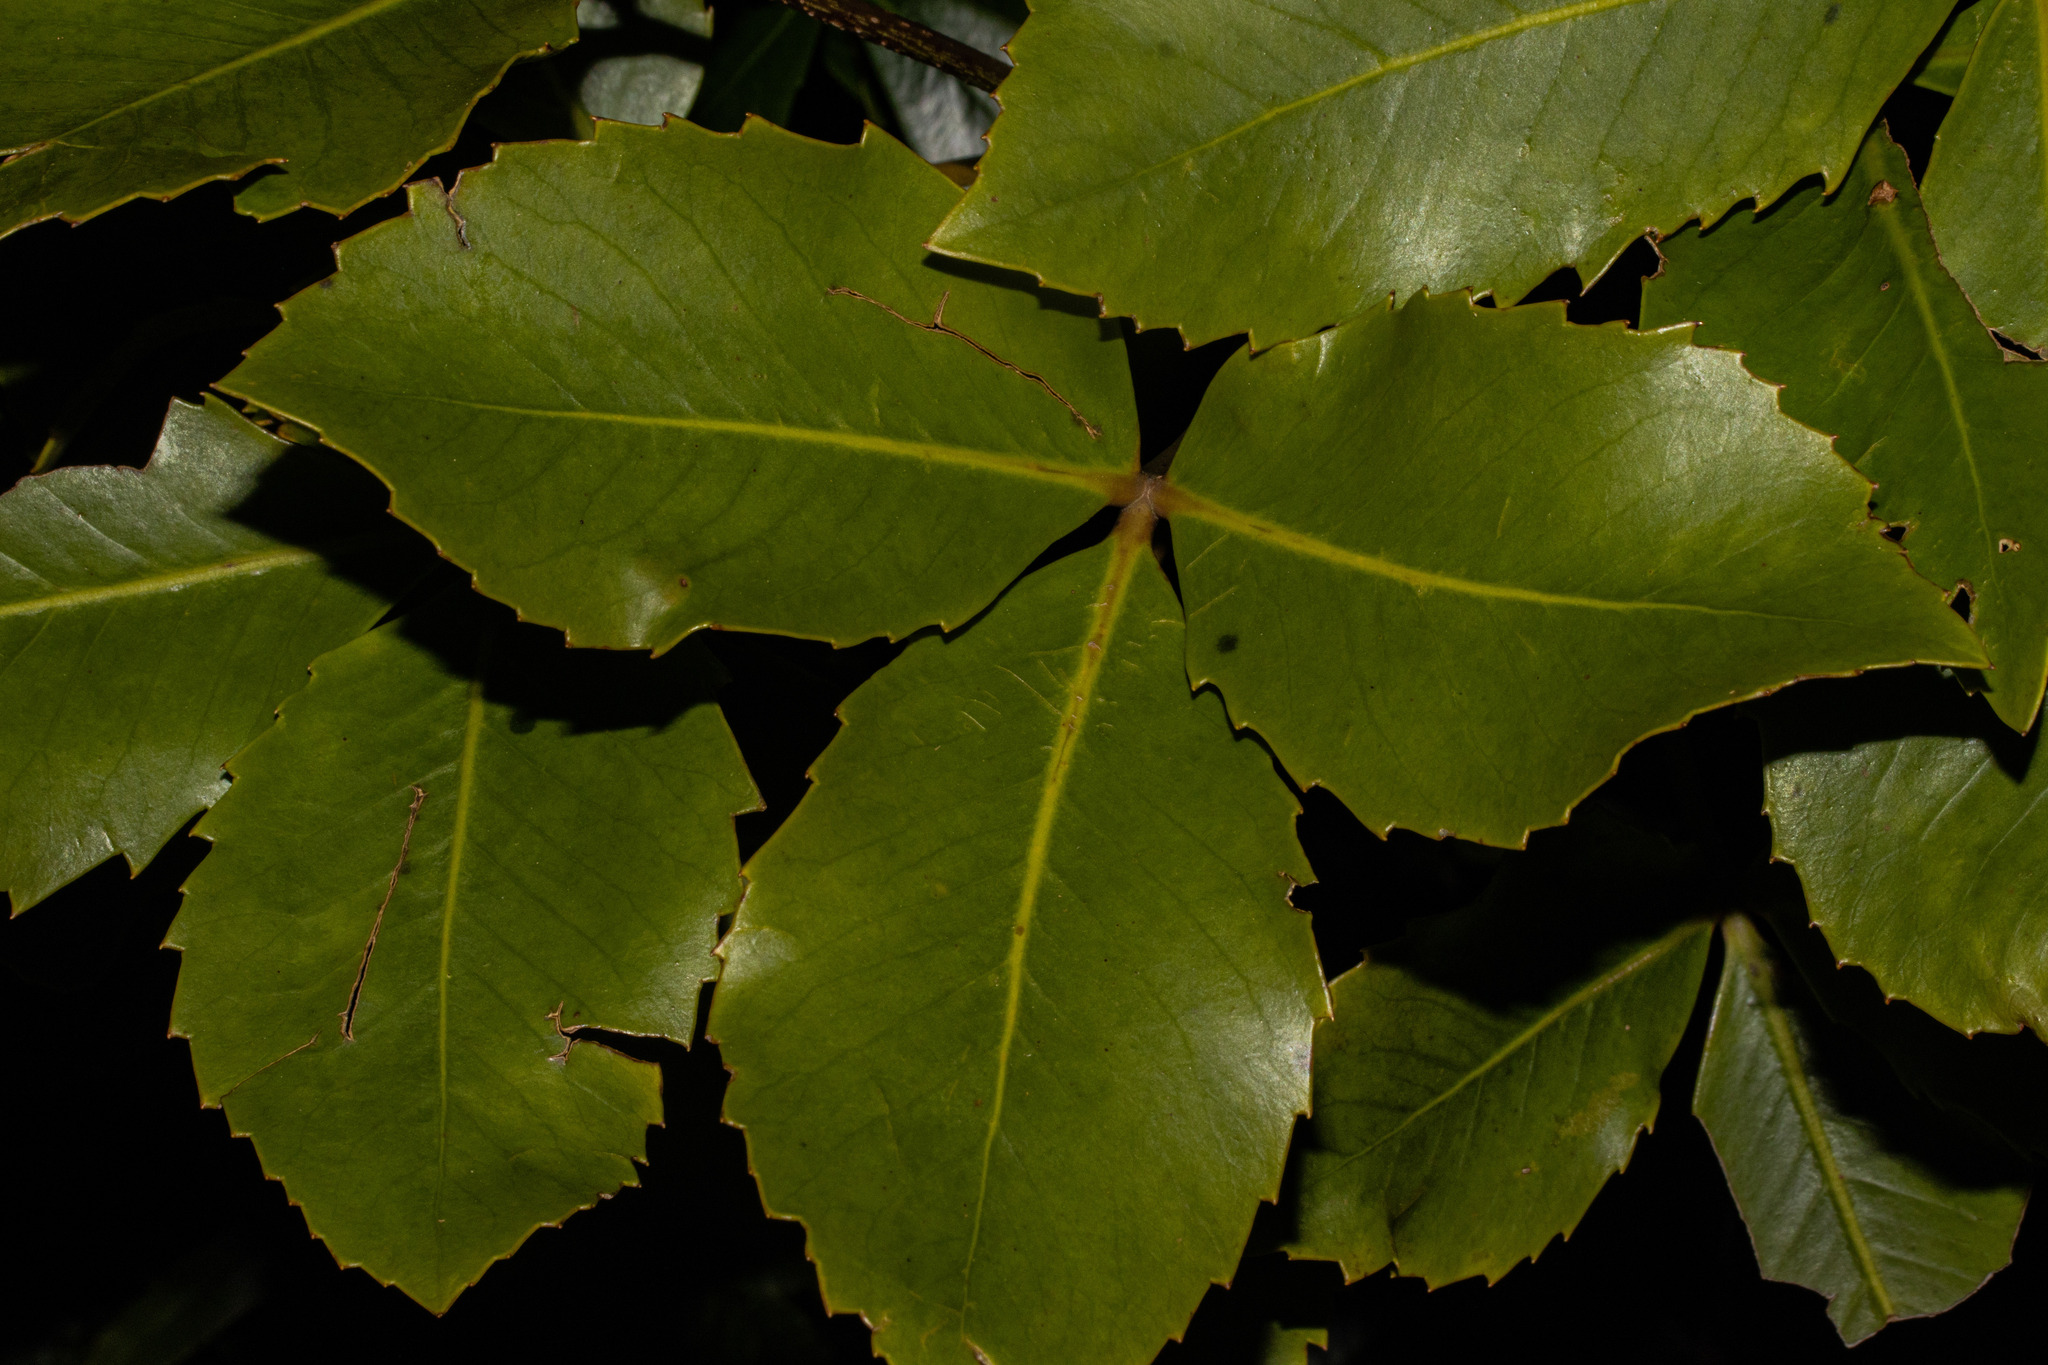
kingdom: Plantae
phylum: Tracheophyta
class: Magnoliopsida
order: Apiales
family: Araliaceae
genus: Neopanax
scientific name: Neopanax colensoi
